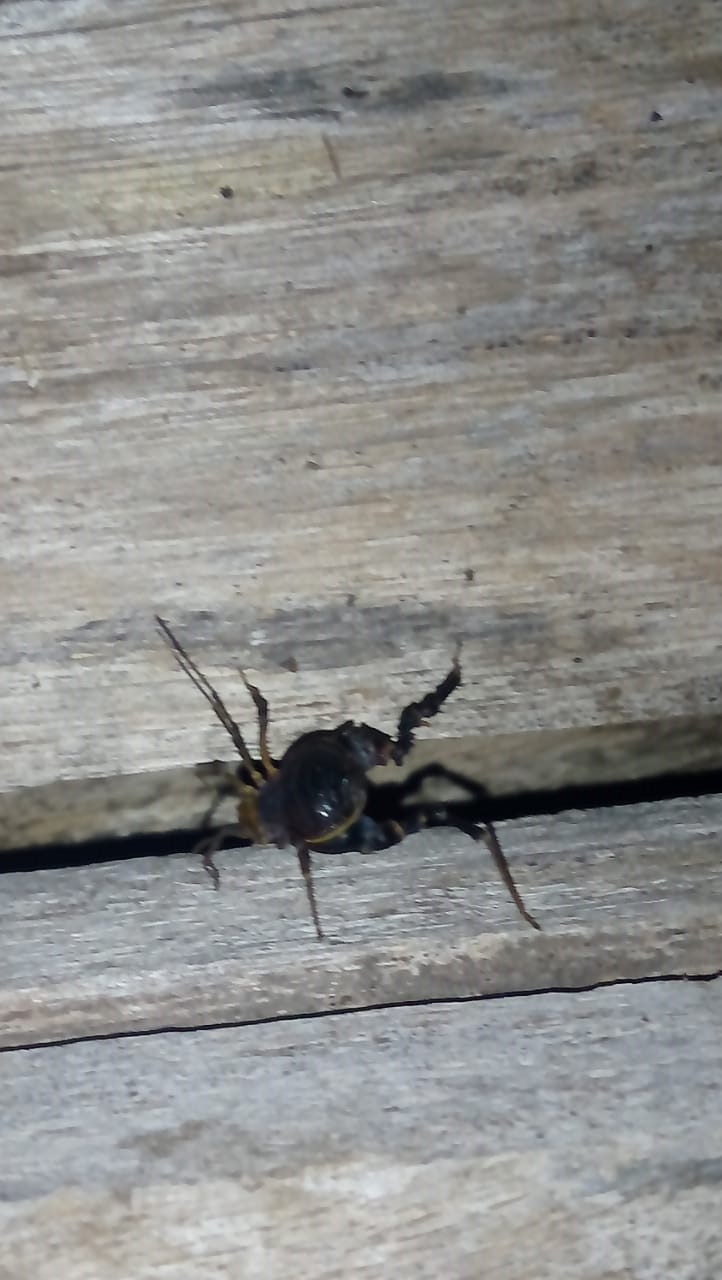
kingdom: Animalia
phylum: Arthropoda
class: Arachnida
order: Opiliones
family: Gonyleptidae
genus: Acanthopachylus
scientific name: Acanthopachylus robustus
